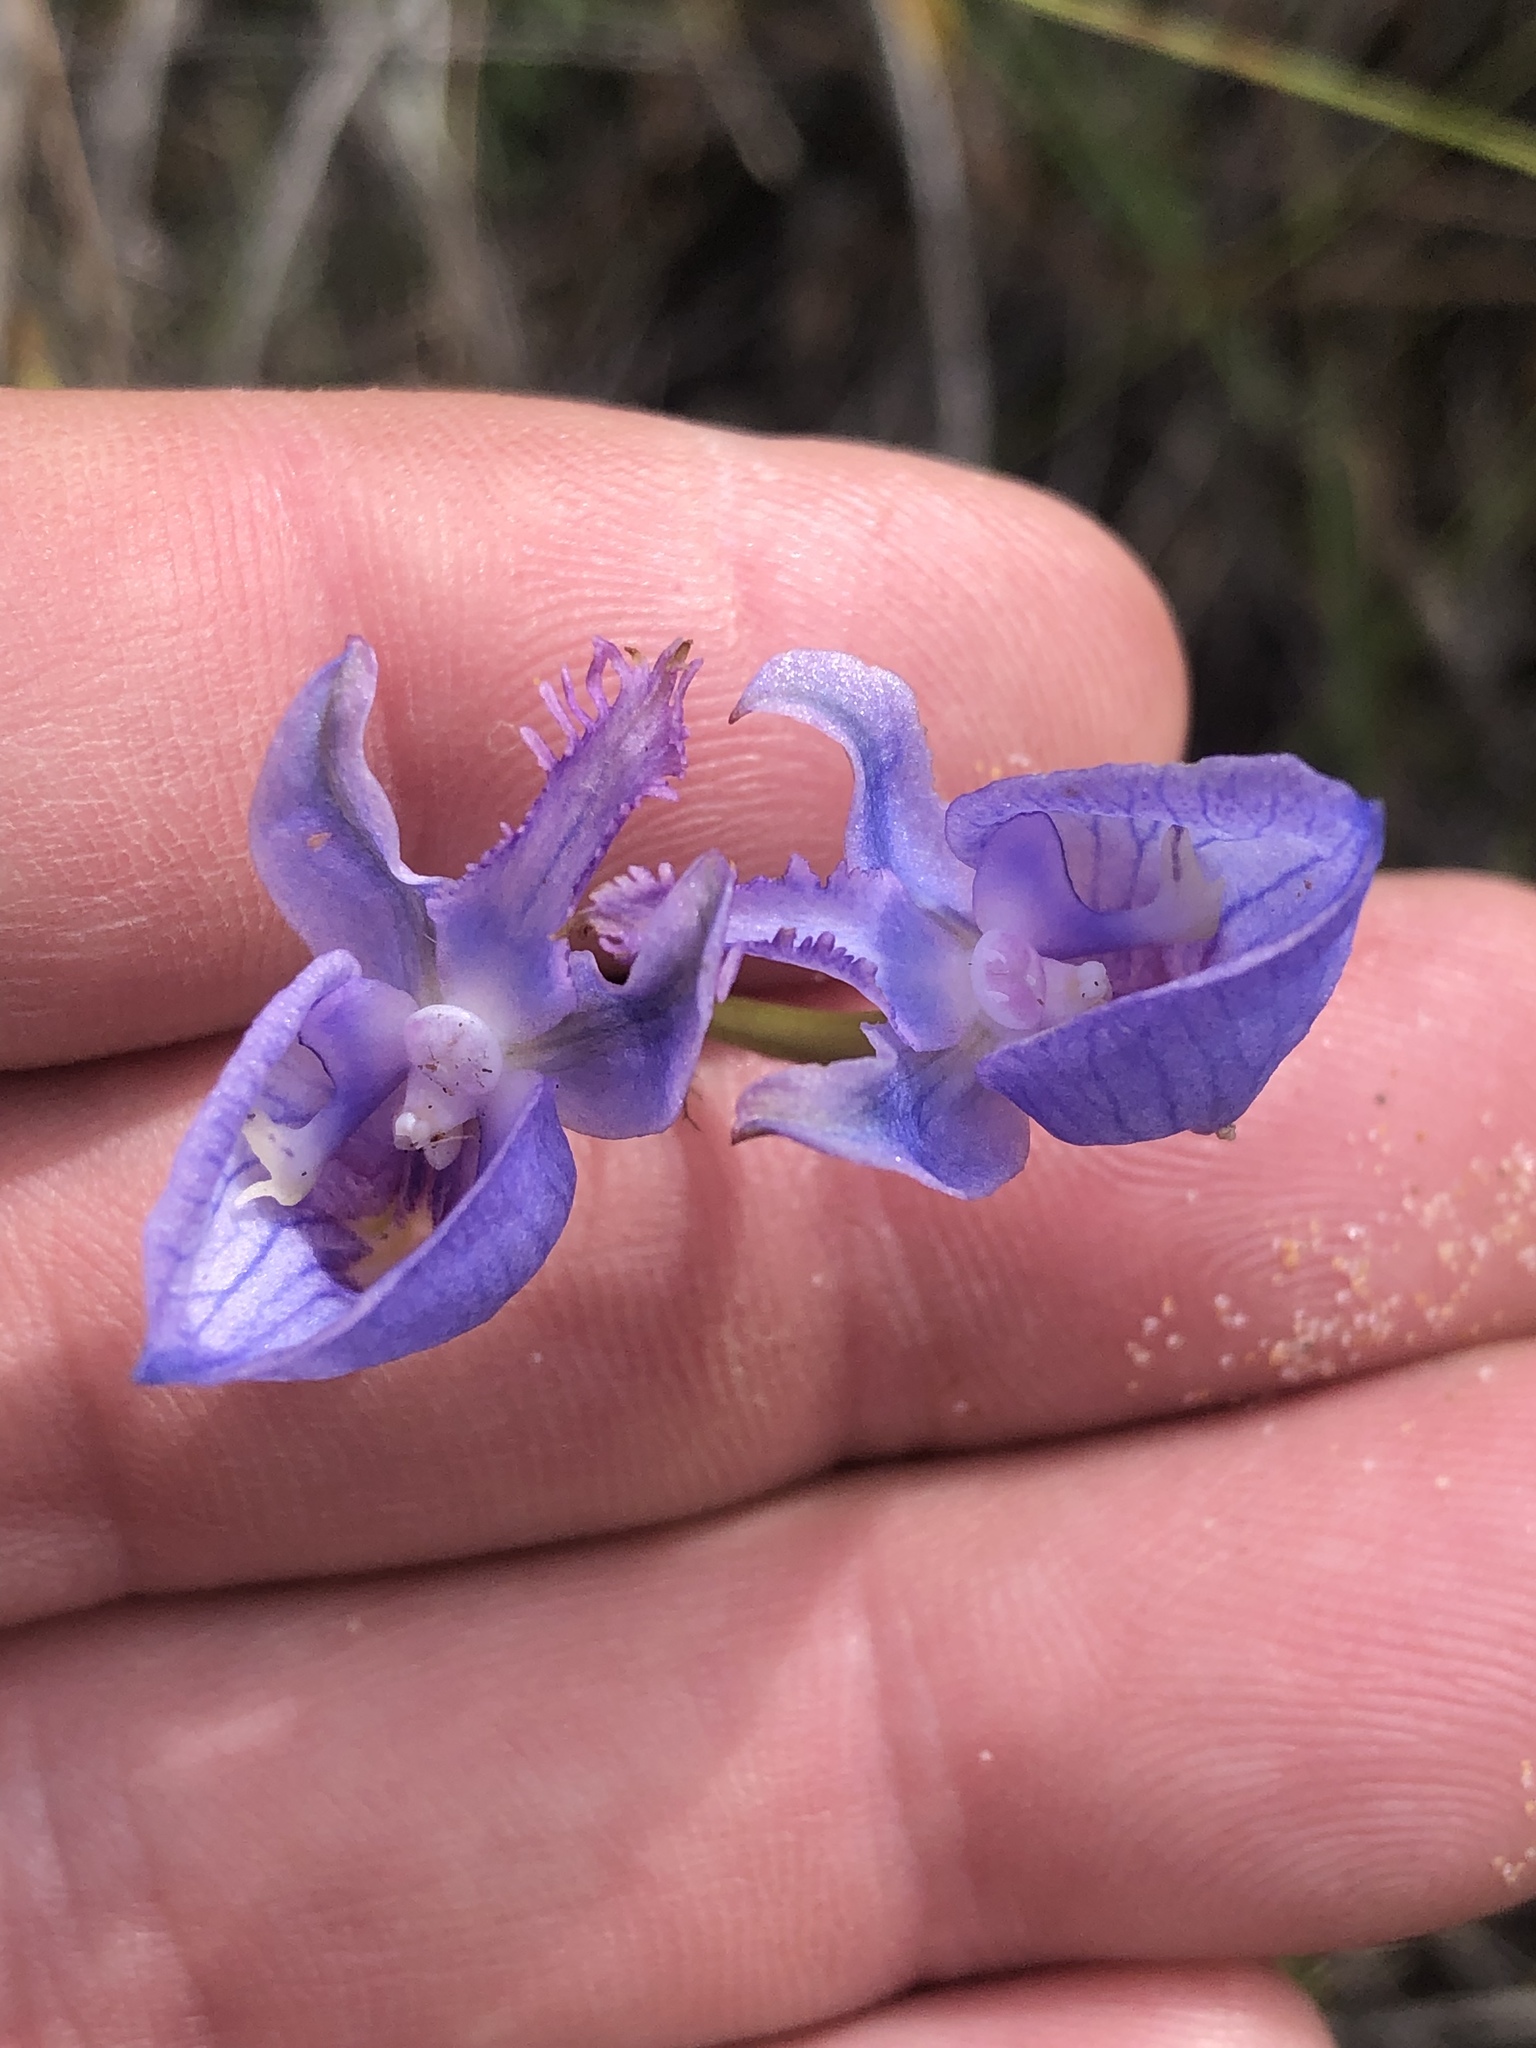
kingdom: Plantae
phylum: Tracheophyta
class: Liliopsida
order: Asparagales
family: Orchidaceae
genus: Disa
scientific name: Disa hians
